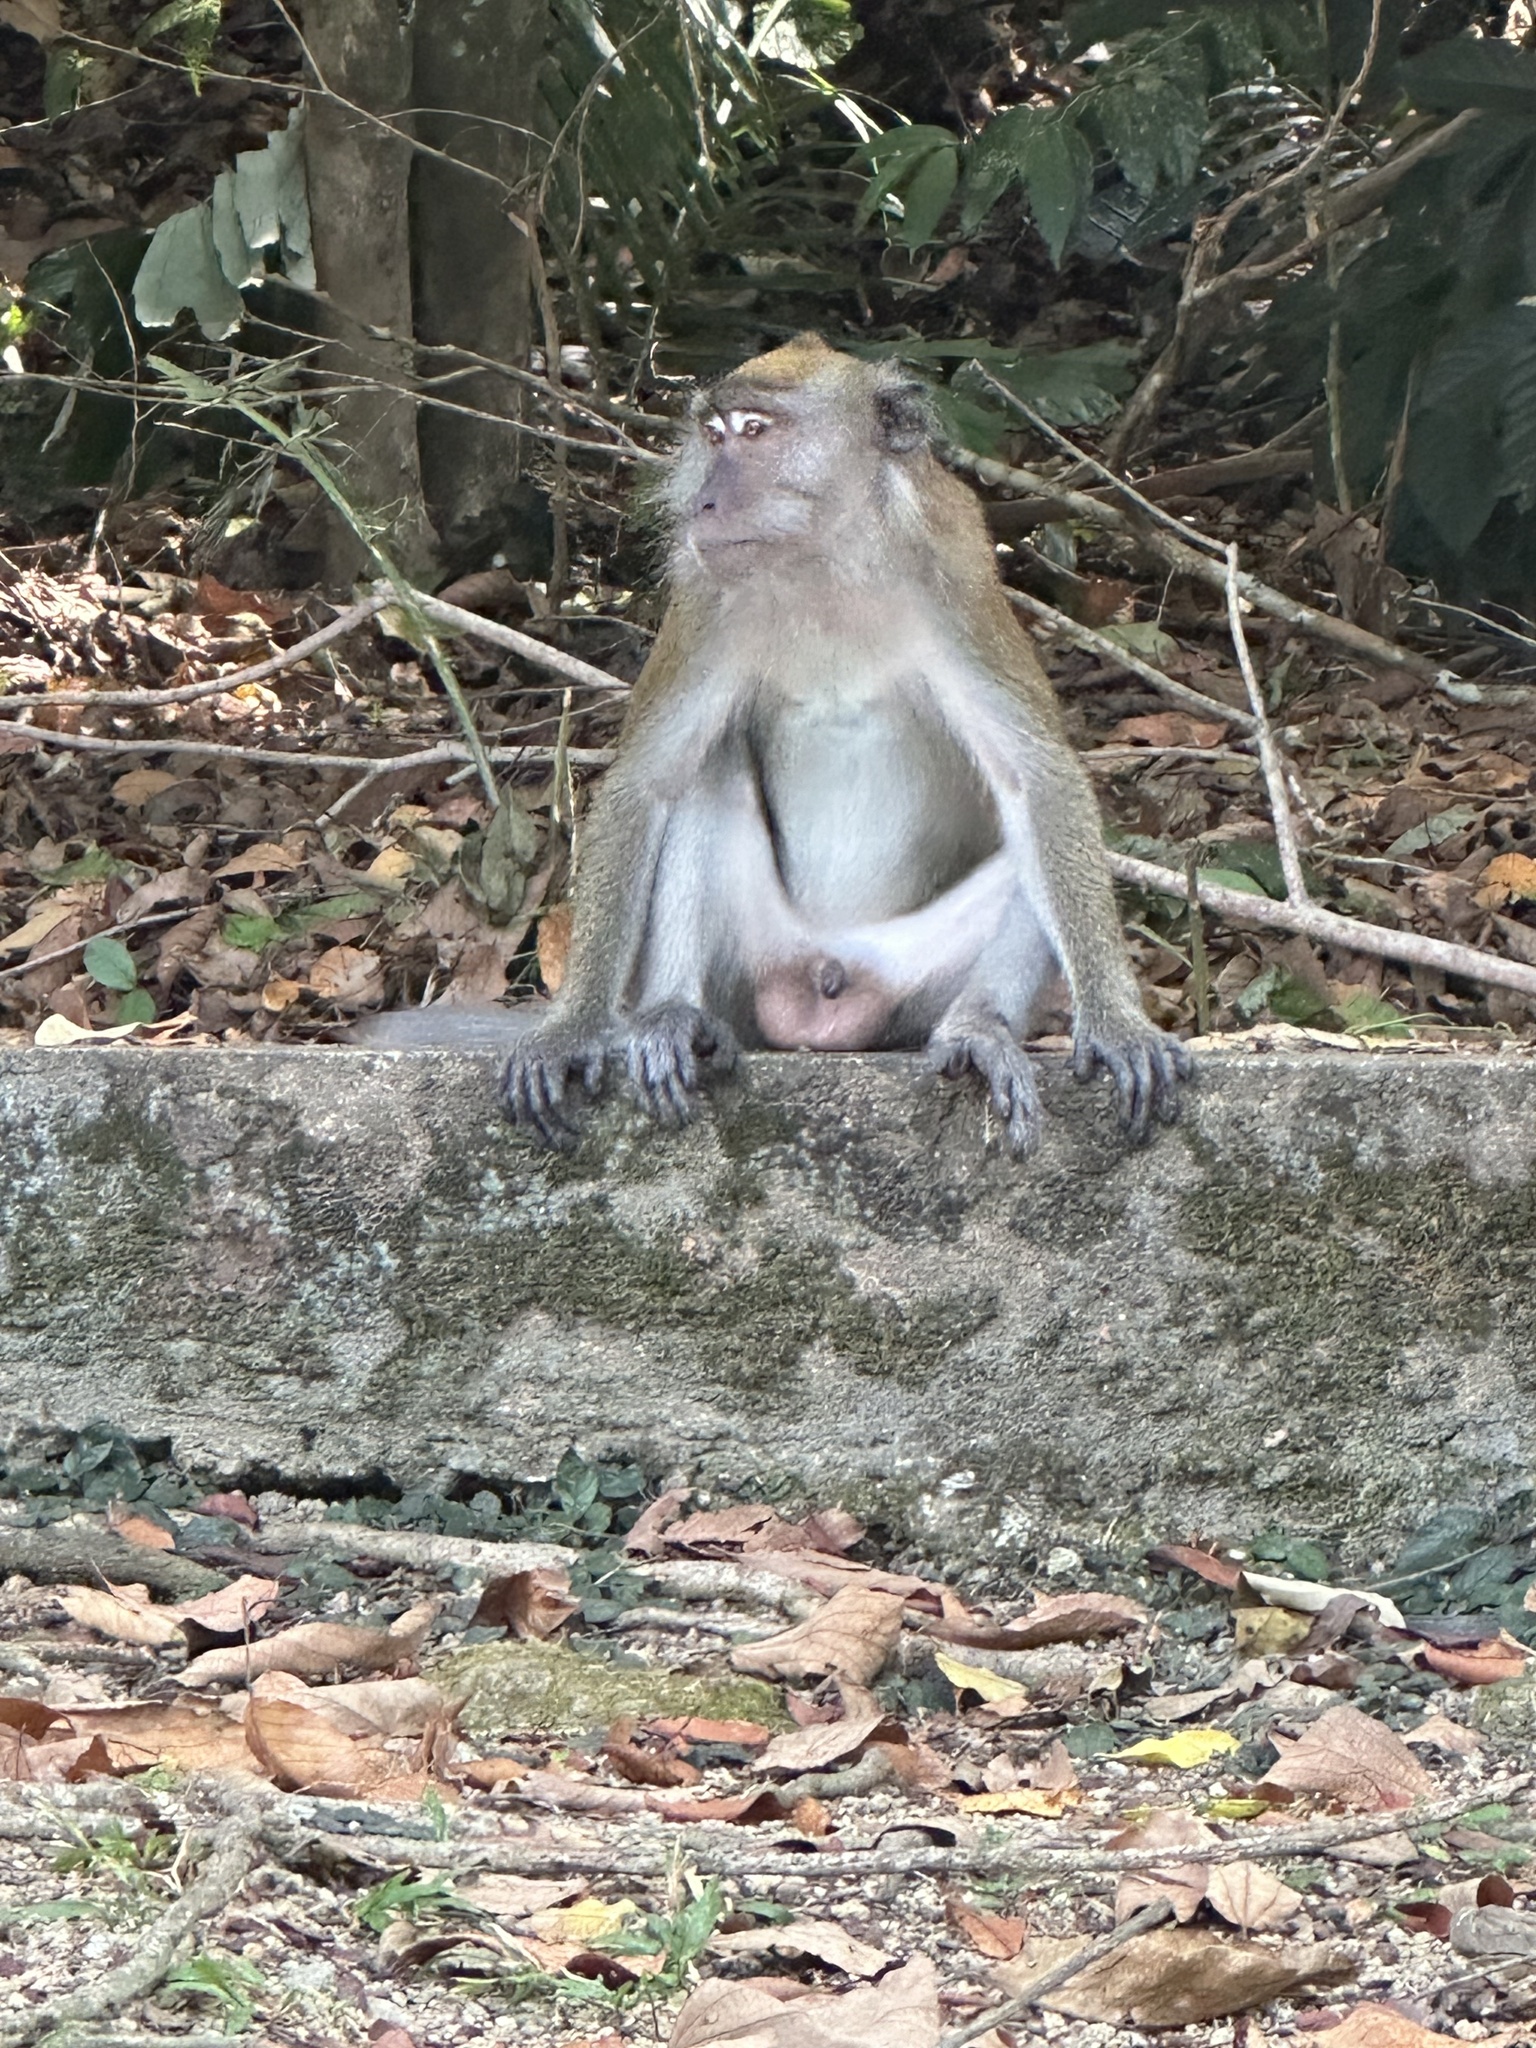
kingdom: Animalia
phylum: Chordata
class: Mammalia
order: Primates
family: Cercopithecidae
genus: Macaca
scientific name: Macaca fascicularis
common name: Crab-eating macaque
